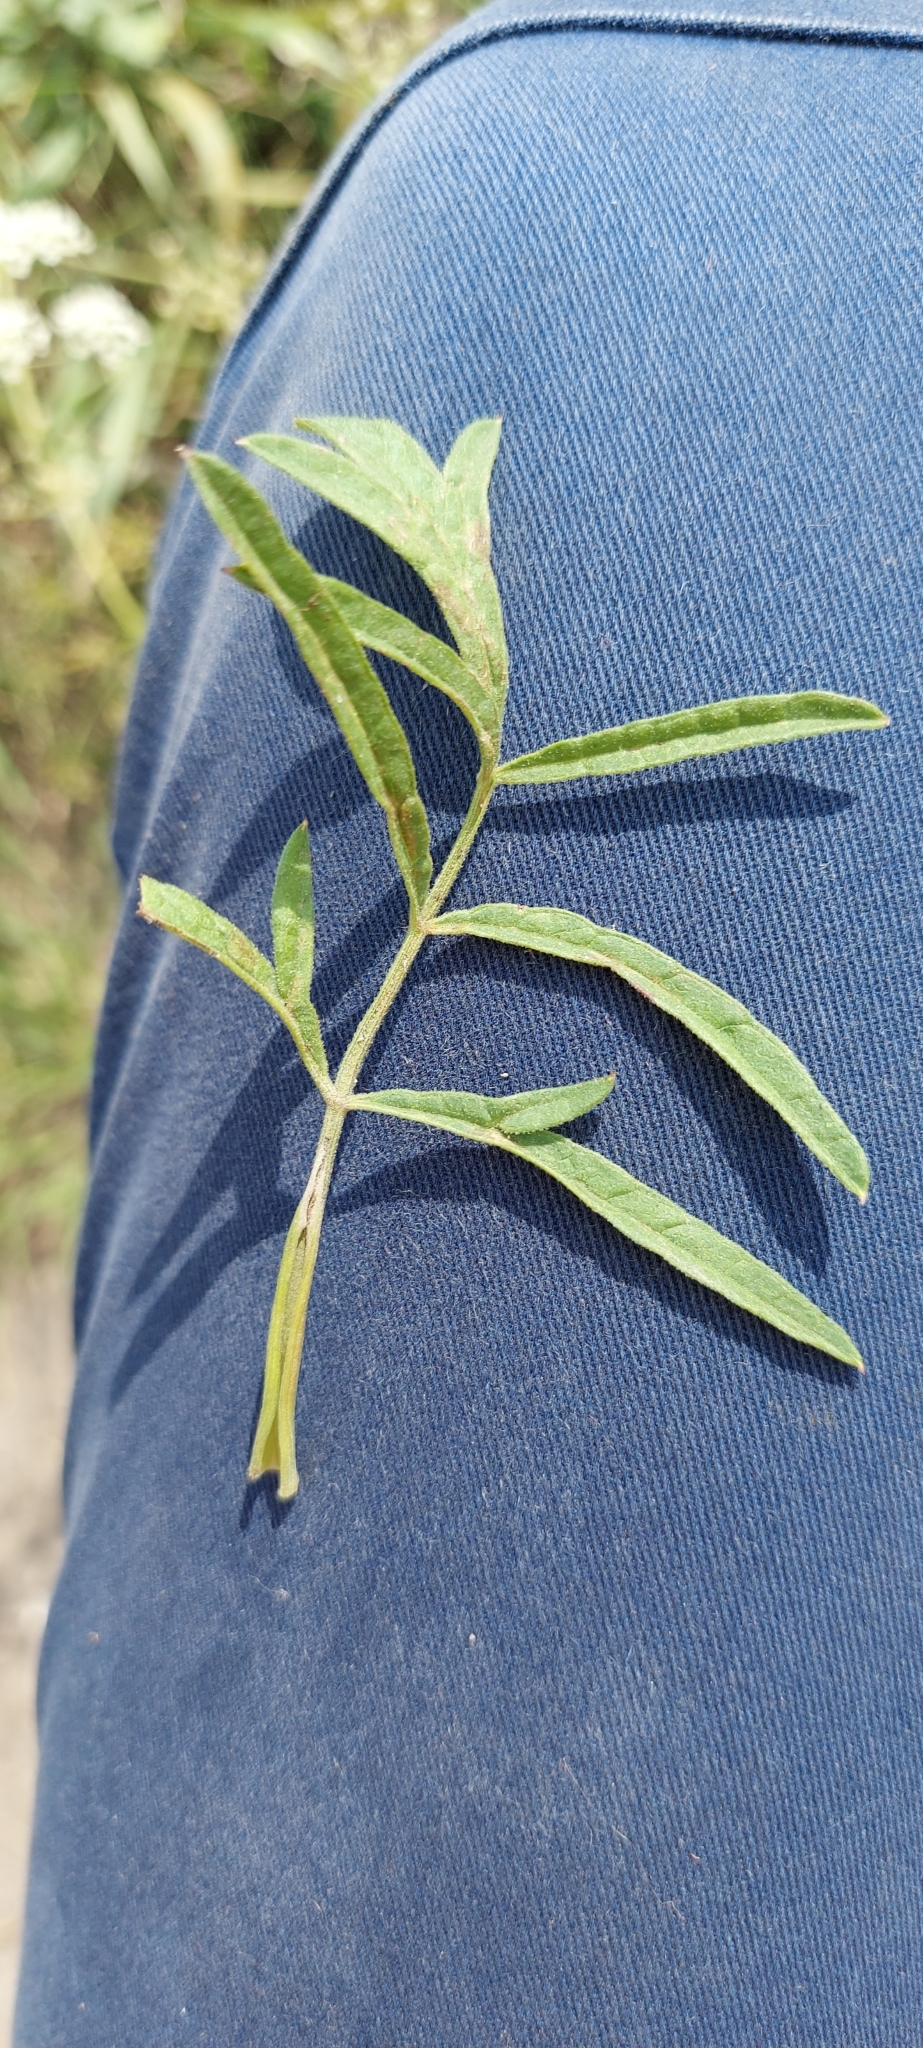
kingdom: Plantae
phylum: Tracheophyta
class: Magnoliopsida
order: Apiales
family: Apiaceae
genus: Pimpinella
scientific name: Pimpinella saxifraga
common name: Burnet-saxifrage
